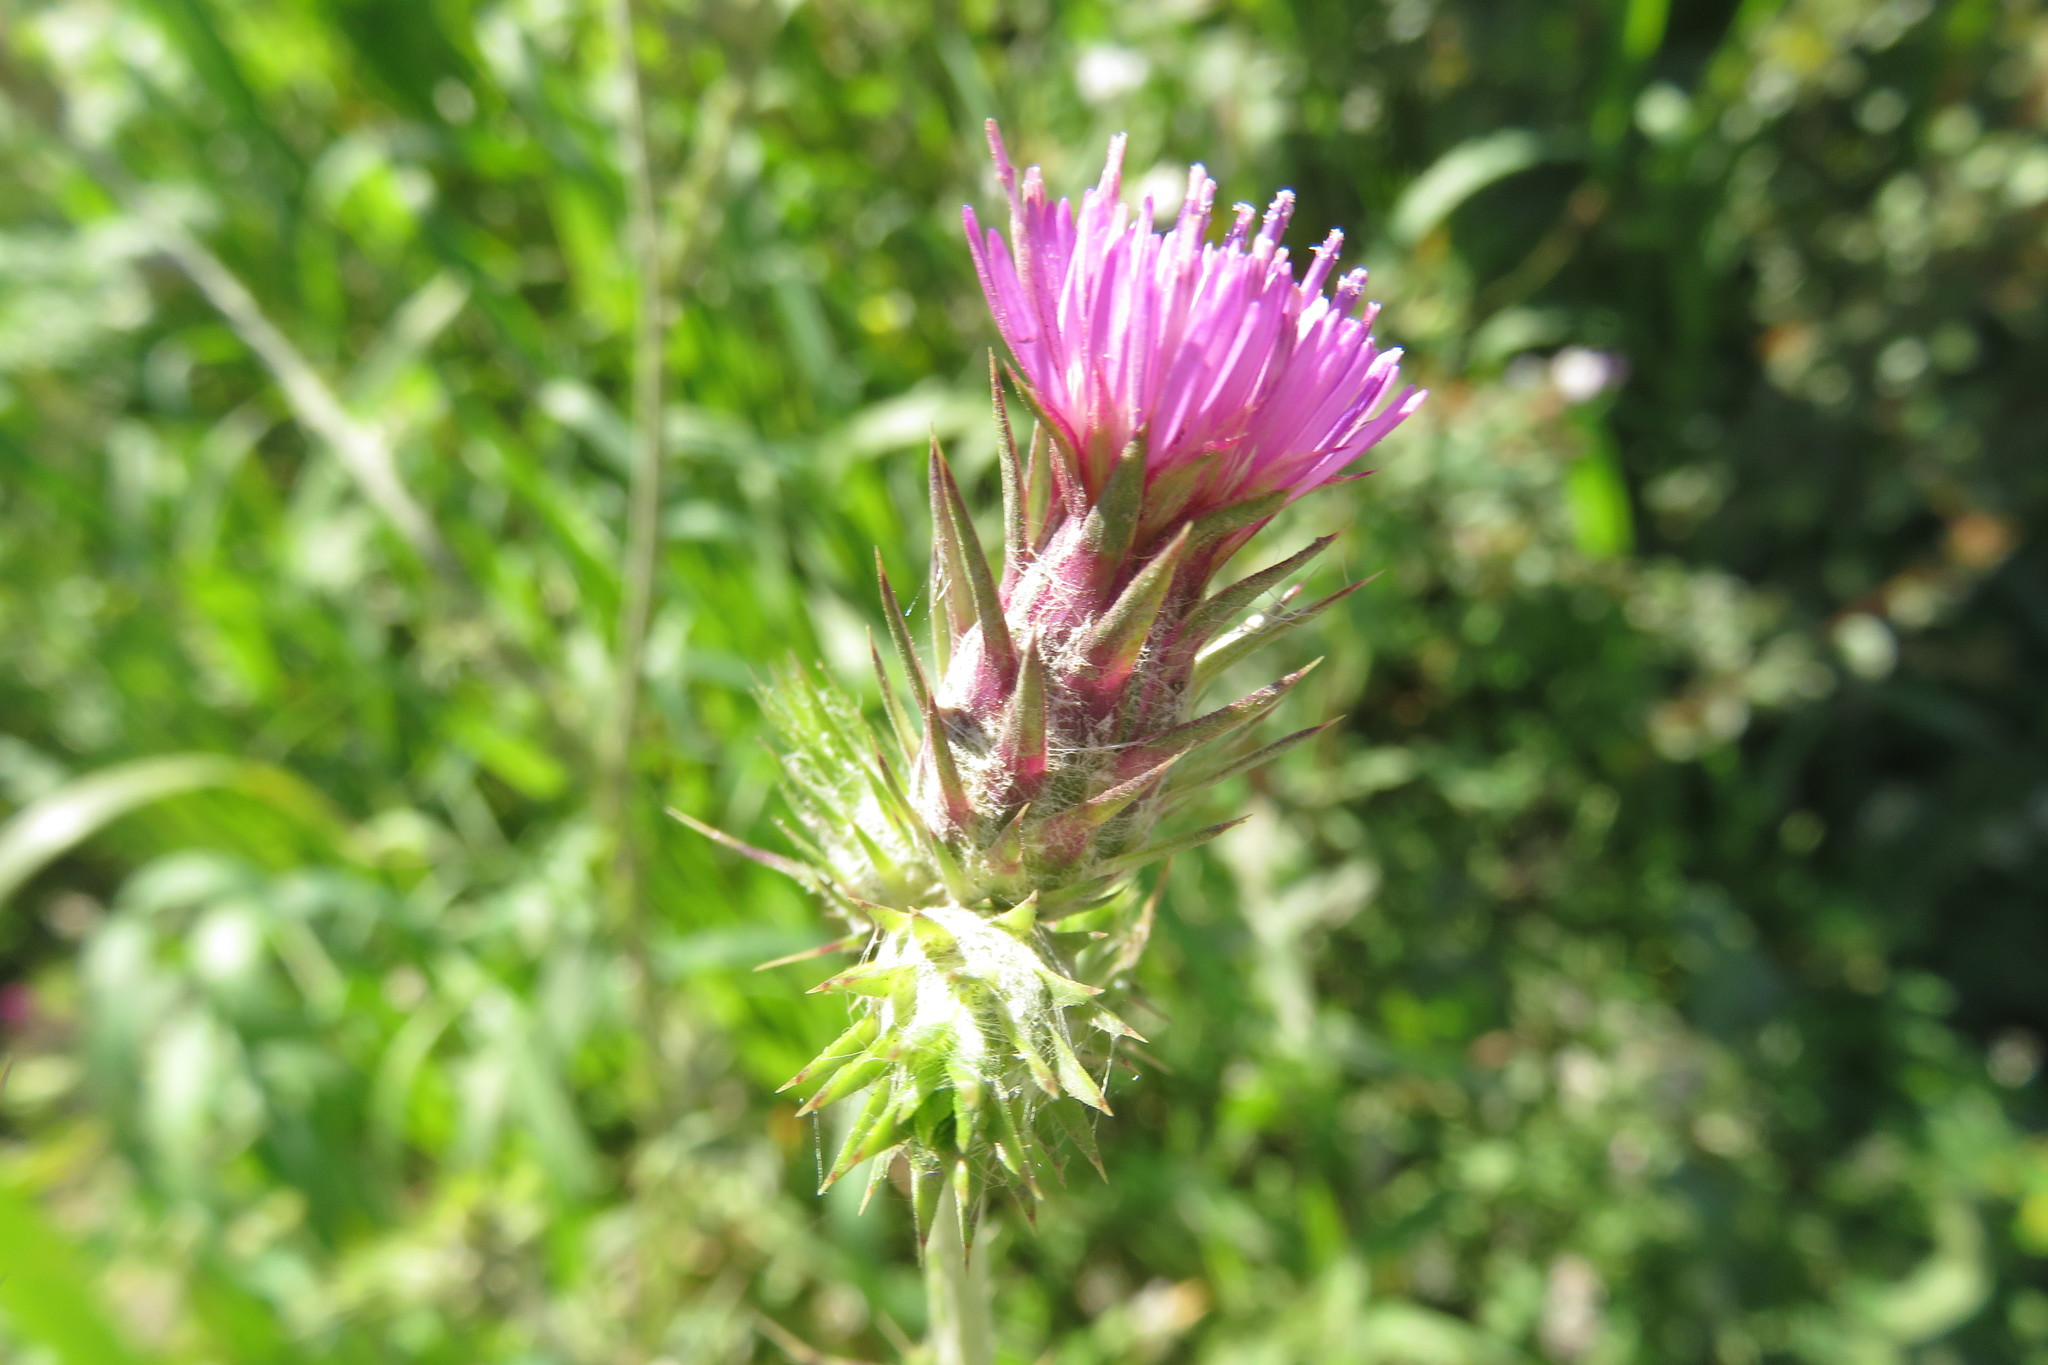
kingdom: Plantae
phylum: Tracheophyta
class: Magnoliopsida
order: Asterales
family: Asteraceae
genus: Carduus
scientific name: Carduus pycnocephalus
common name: Plymouth thistle
